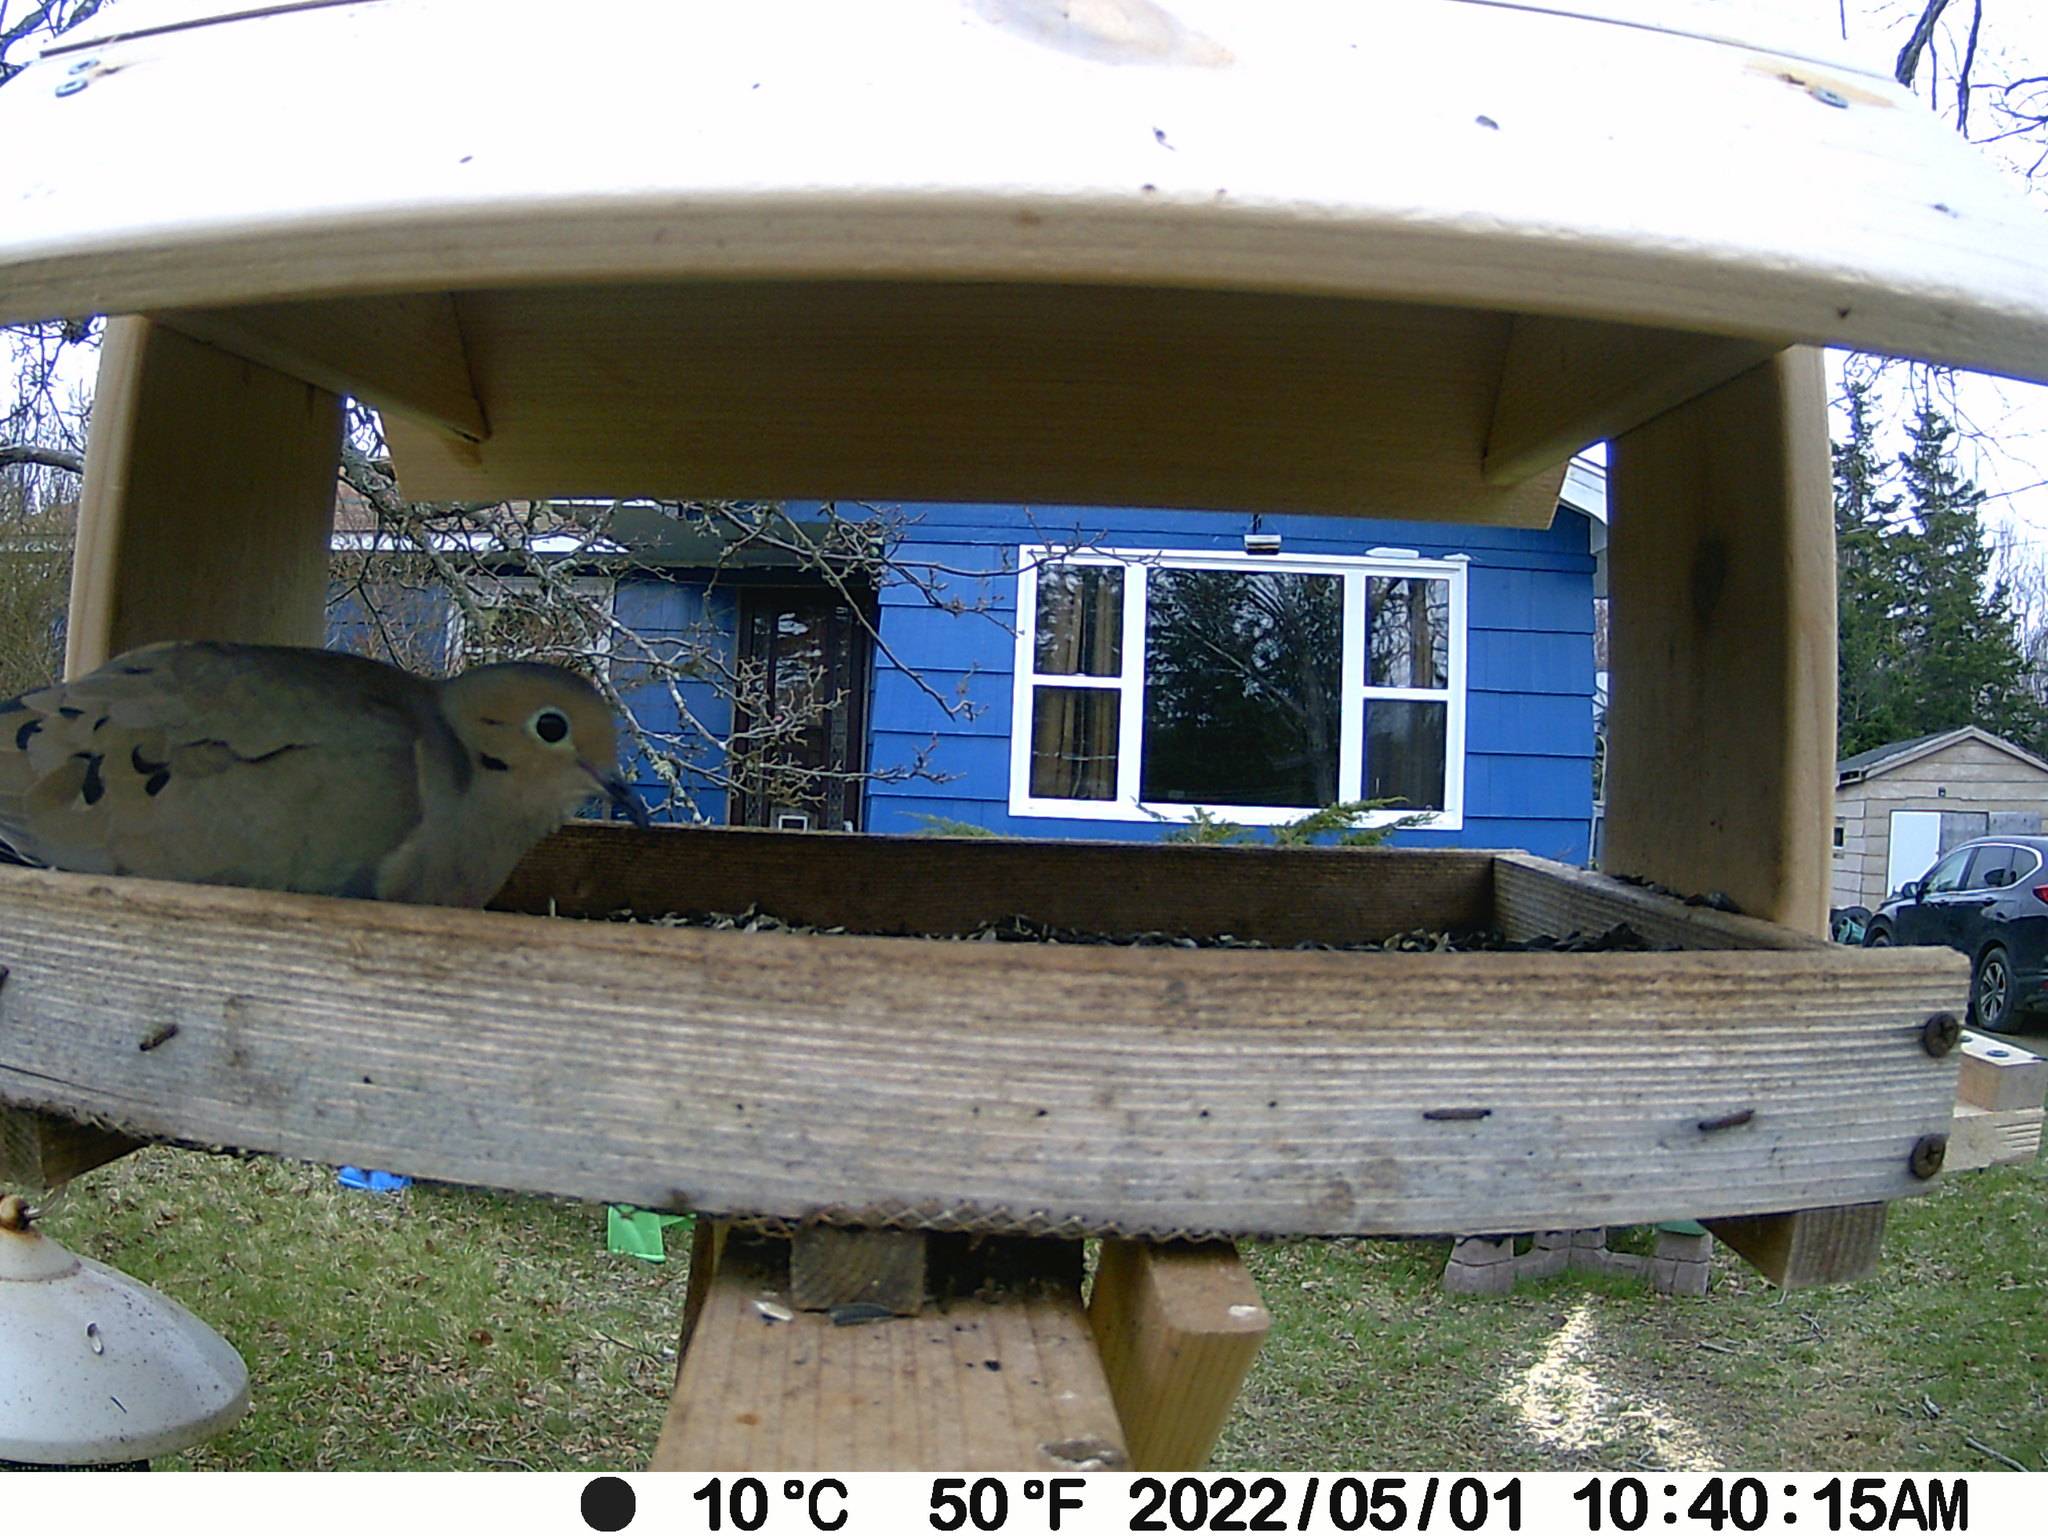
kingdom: Animalia
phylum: Chordata
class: Aves
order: Columbiformes
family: Columbidae
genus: Zenaida
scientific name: Zenaida macroura
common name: Mourning dove
